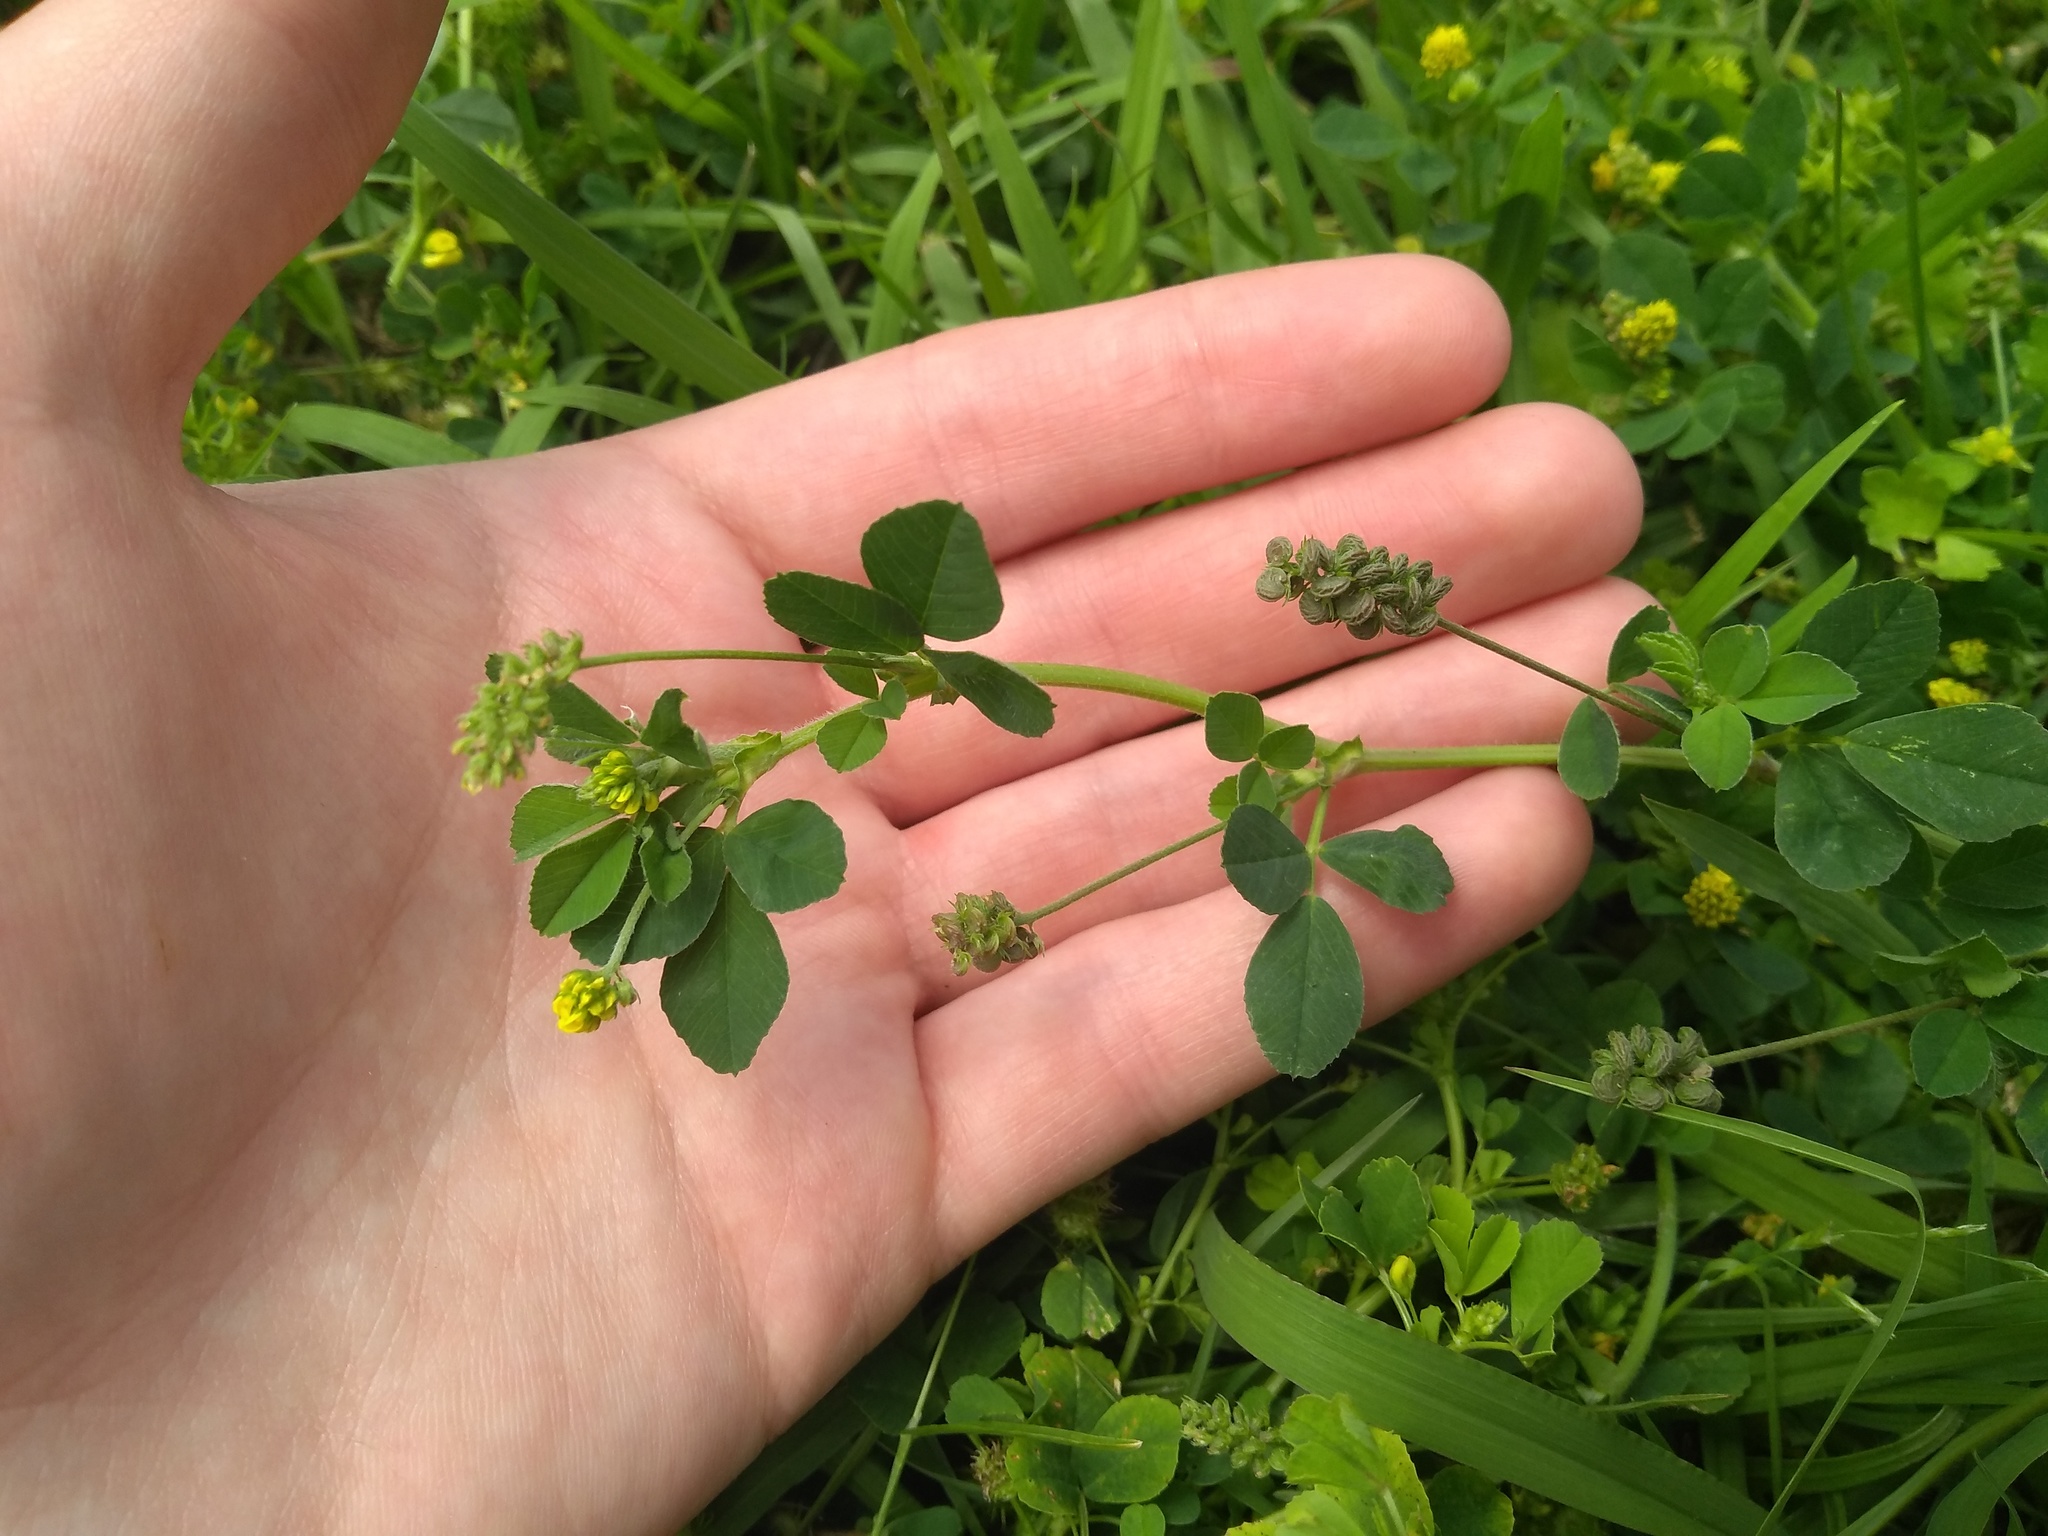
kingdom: Plantae
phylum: Tracheophyta
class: Magnoliopsida
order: Fabales
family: Fabaceae
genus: Medicago
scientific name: Medicago lupulina
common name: Black medick
